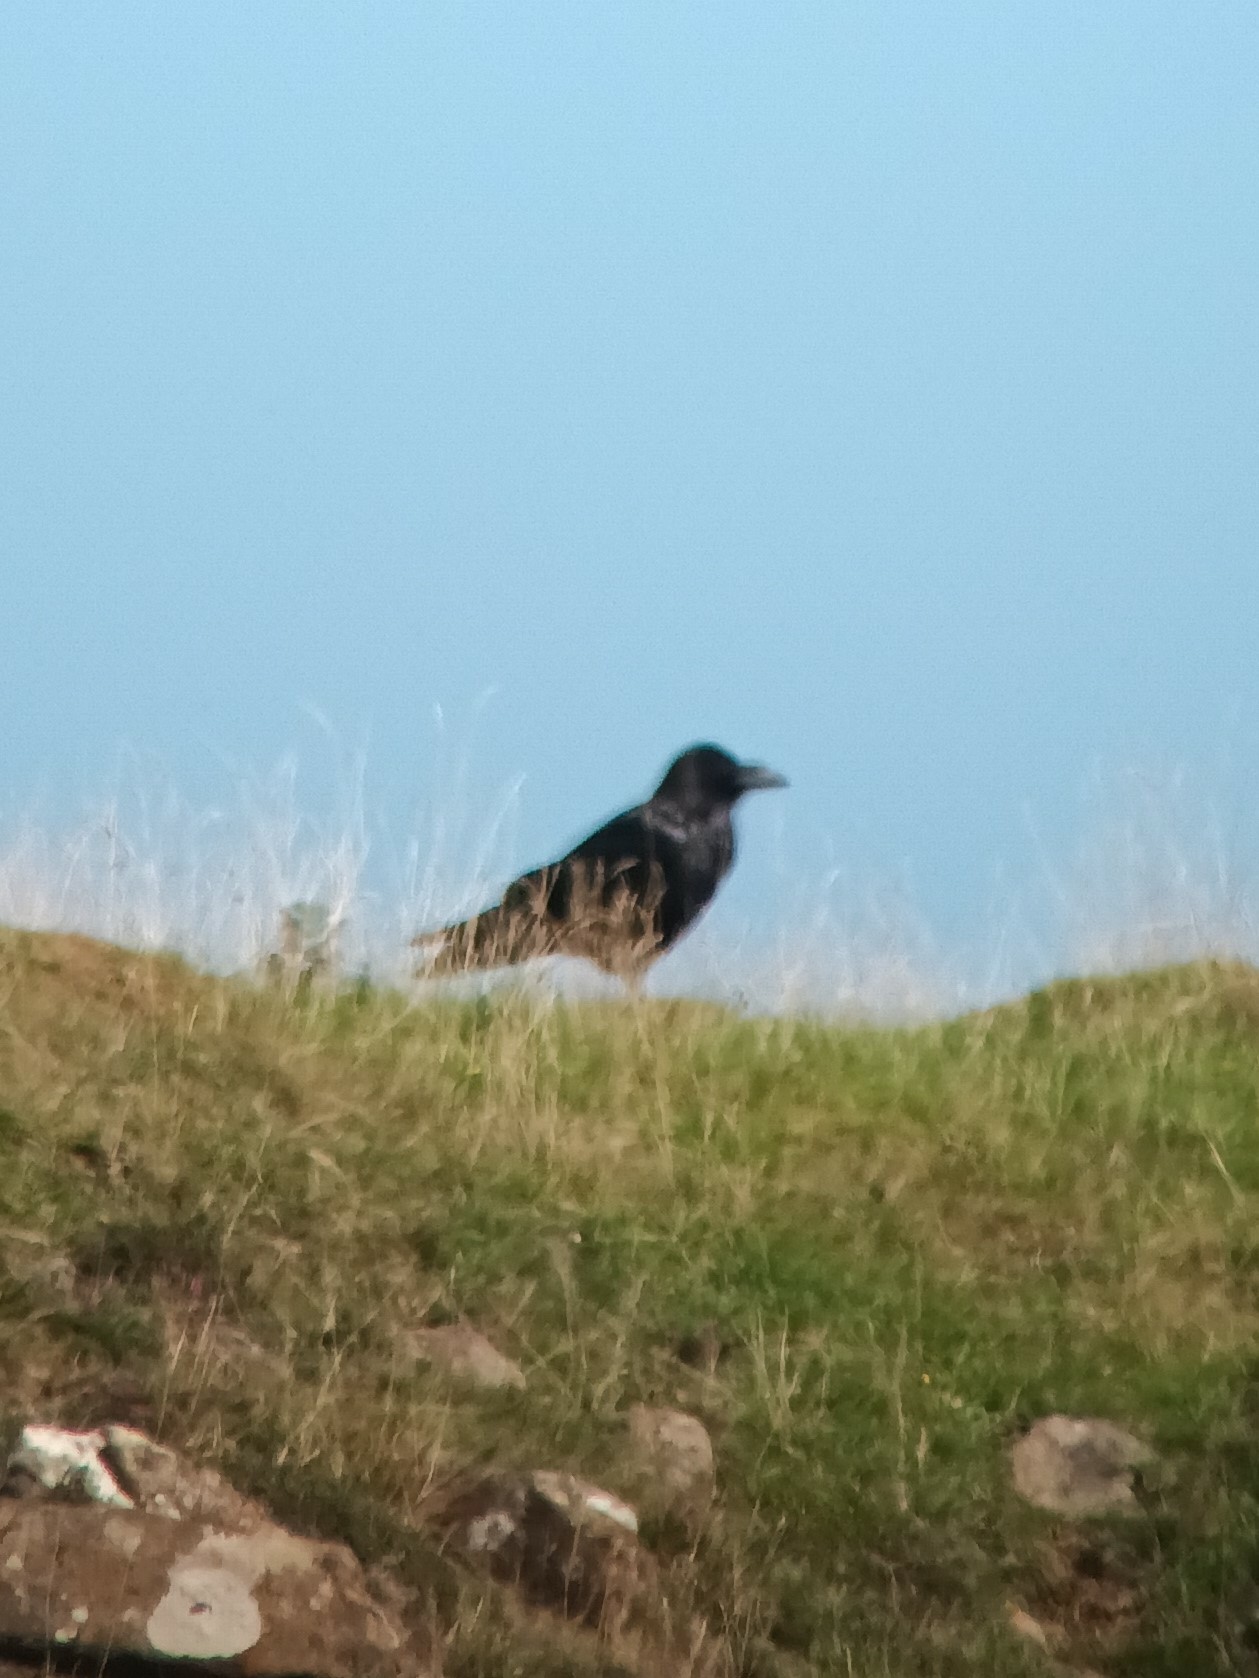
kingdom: Animalia
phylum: Chordata
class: Aves
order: Passeriformes
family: Corvidae
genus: Corvus
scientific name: Corvus corax
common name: Common raven
